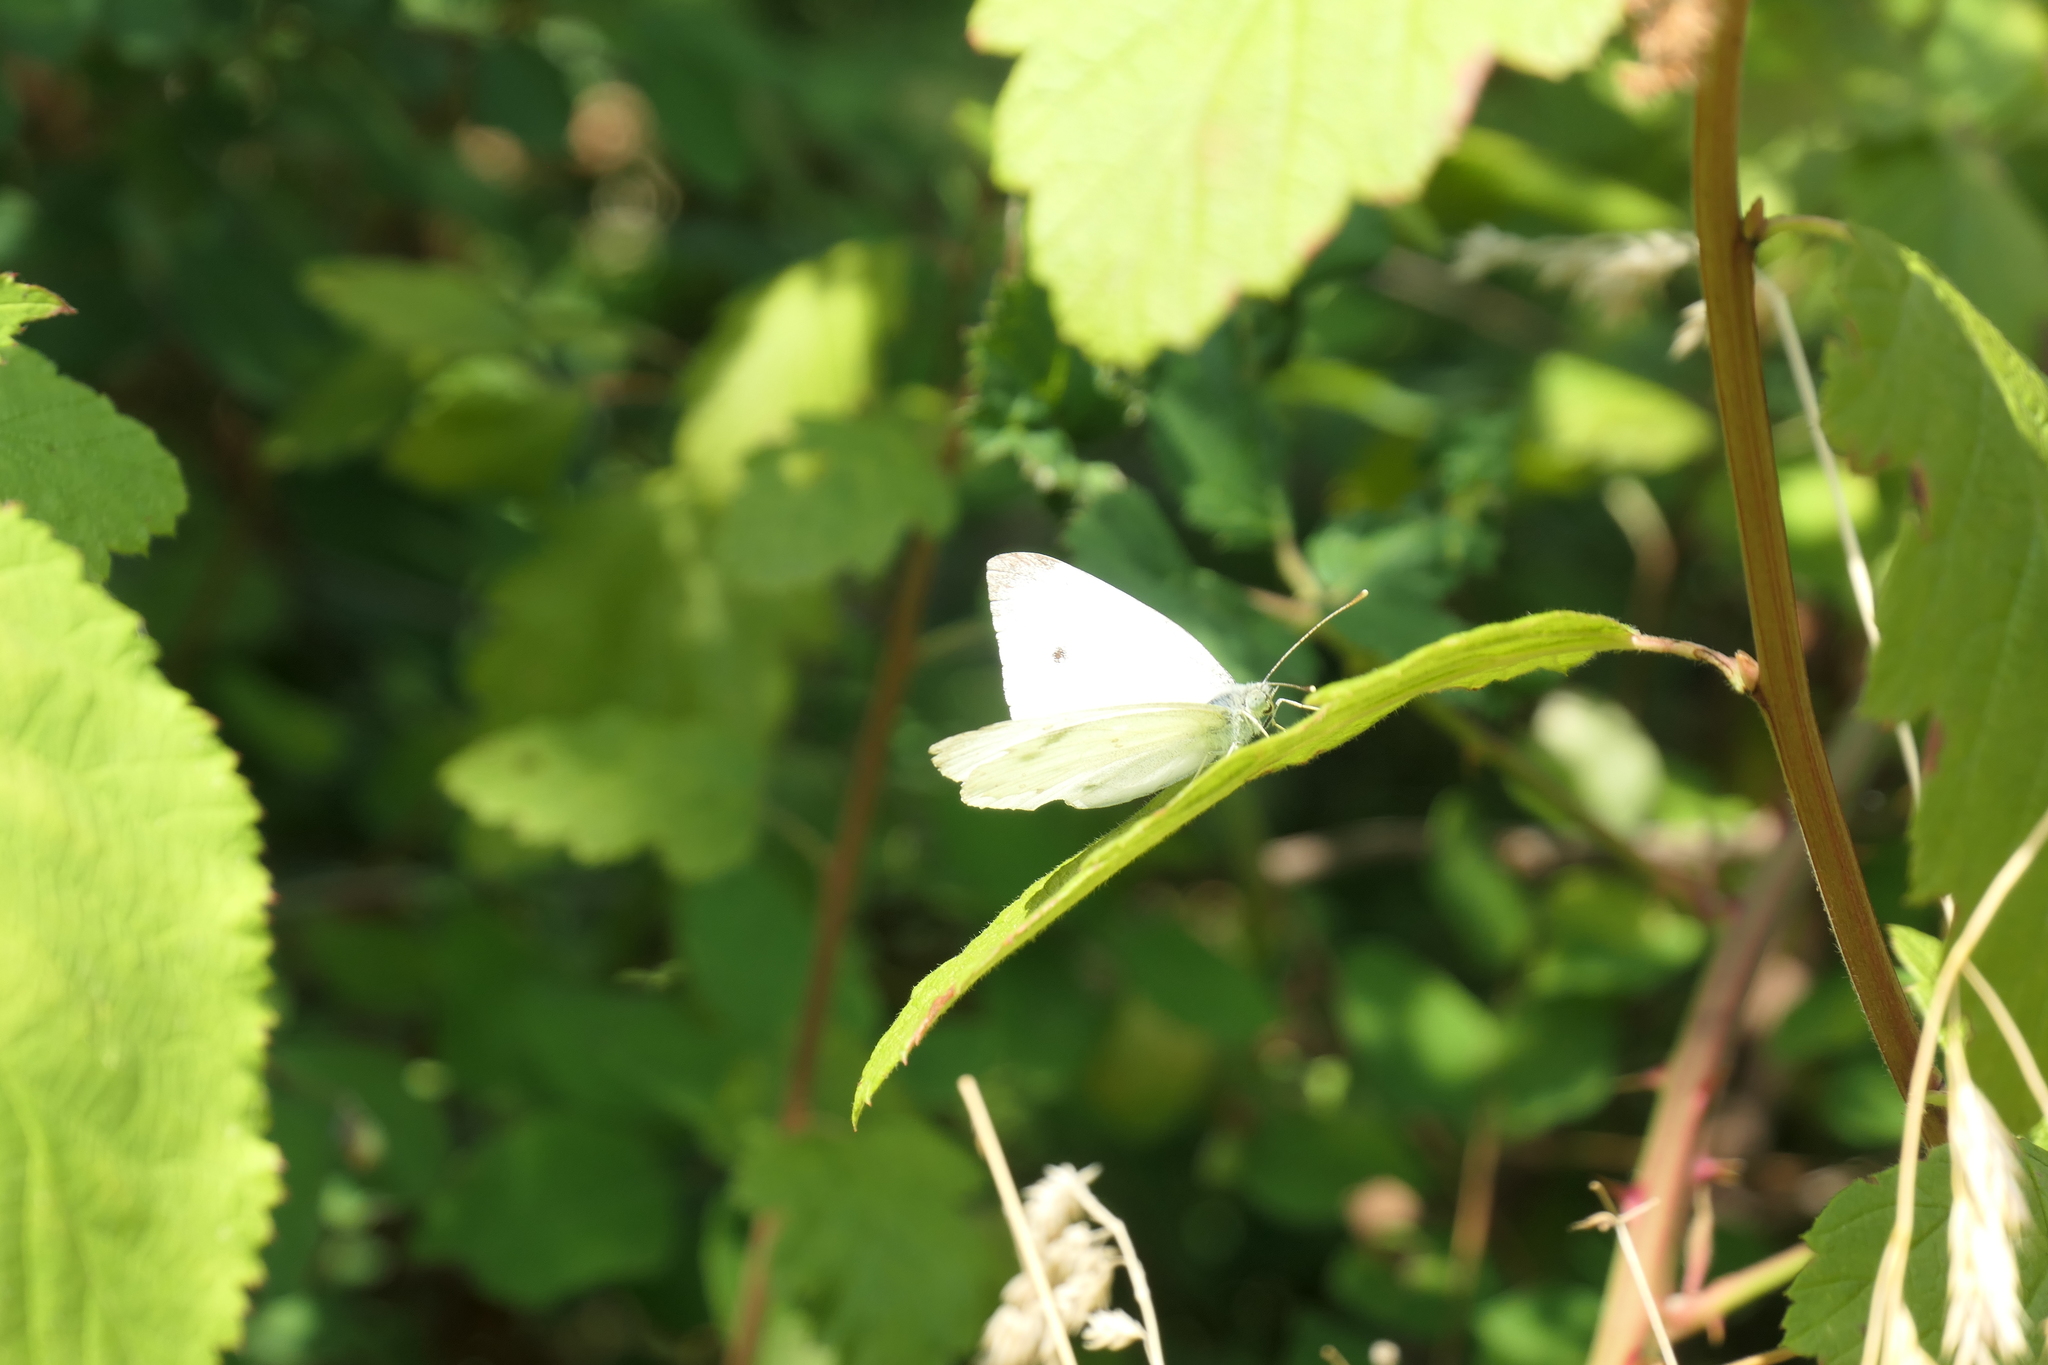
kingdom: Animalia
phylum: Arthropoda
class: Insecta
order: Lepidoptera
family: Pieridae
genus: Pieris
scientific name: Pieris rapae
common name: Small white
